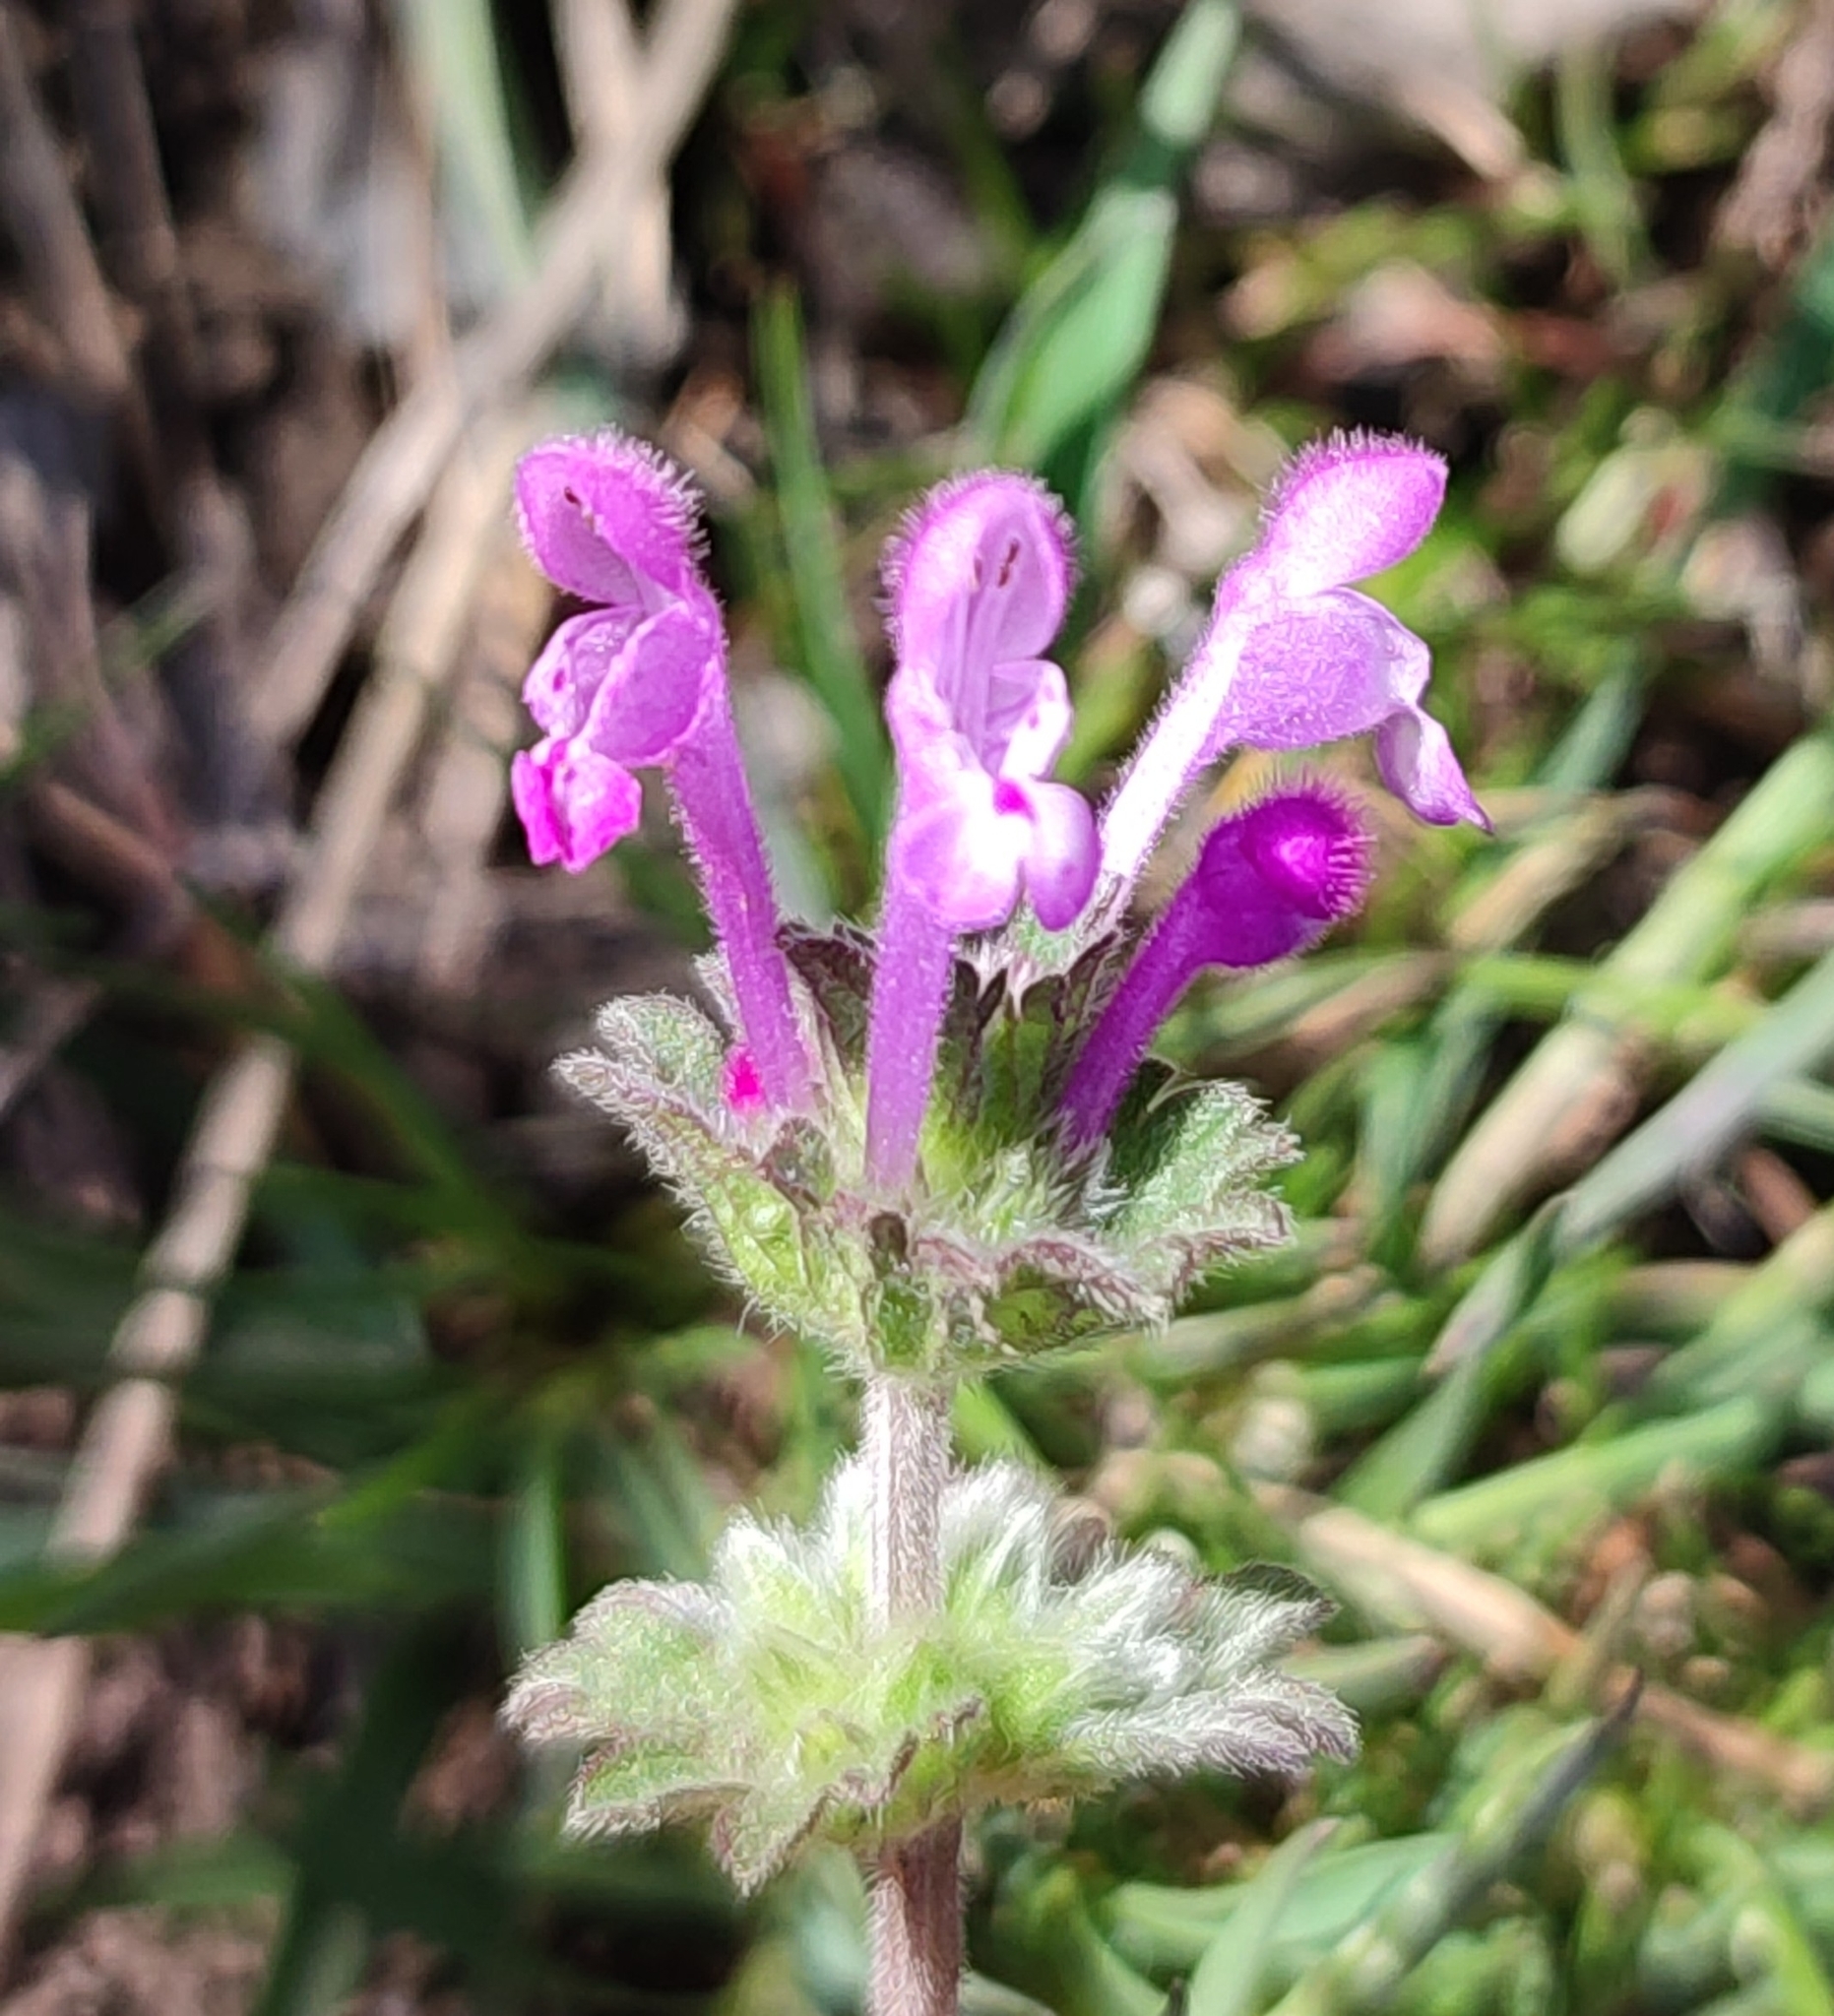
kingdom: Plantae
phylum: Tracheophyta
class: Magnoliopsida
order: Lamiales
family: Lamiaceae
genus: Lamium
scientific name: Lamium amplexicaule
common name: Henbit dead-nettle
